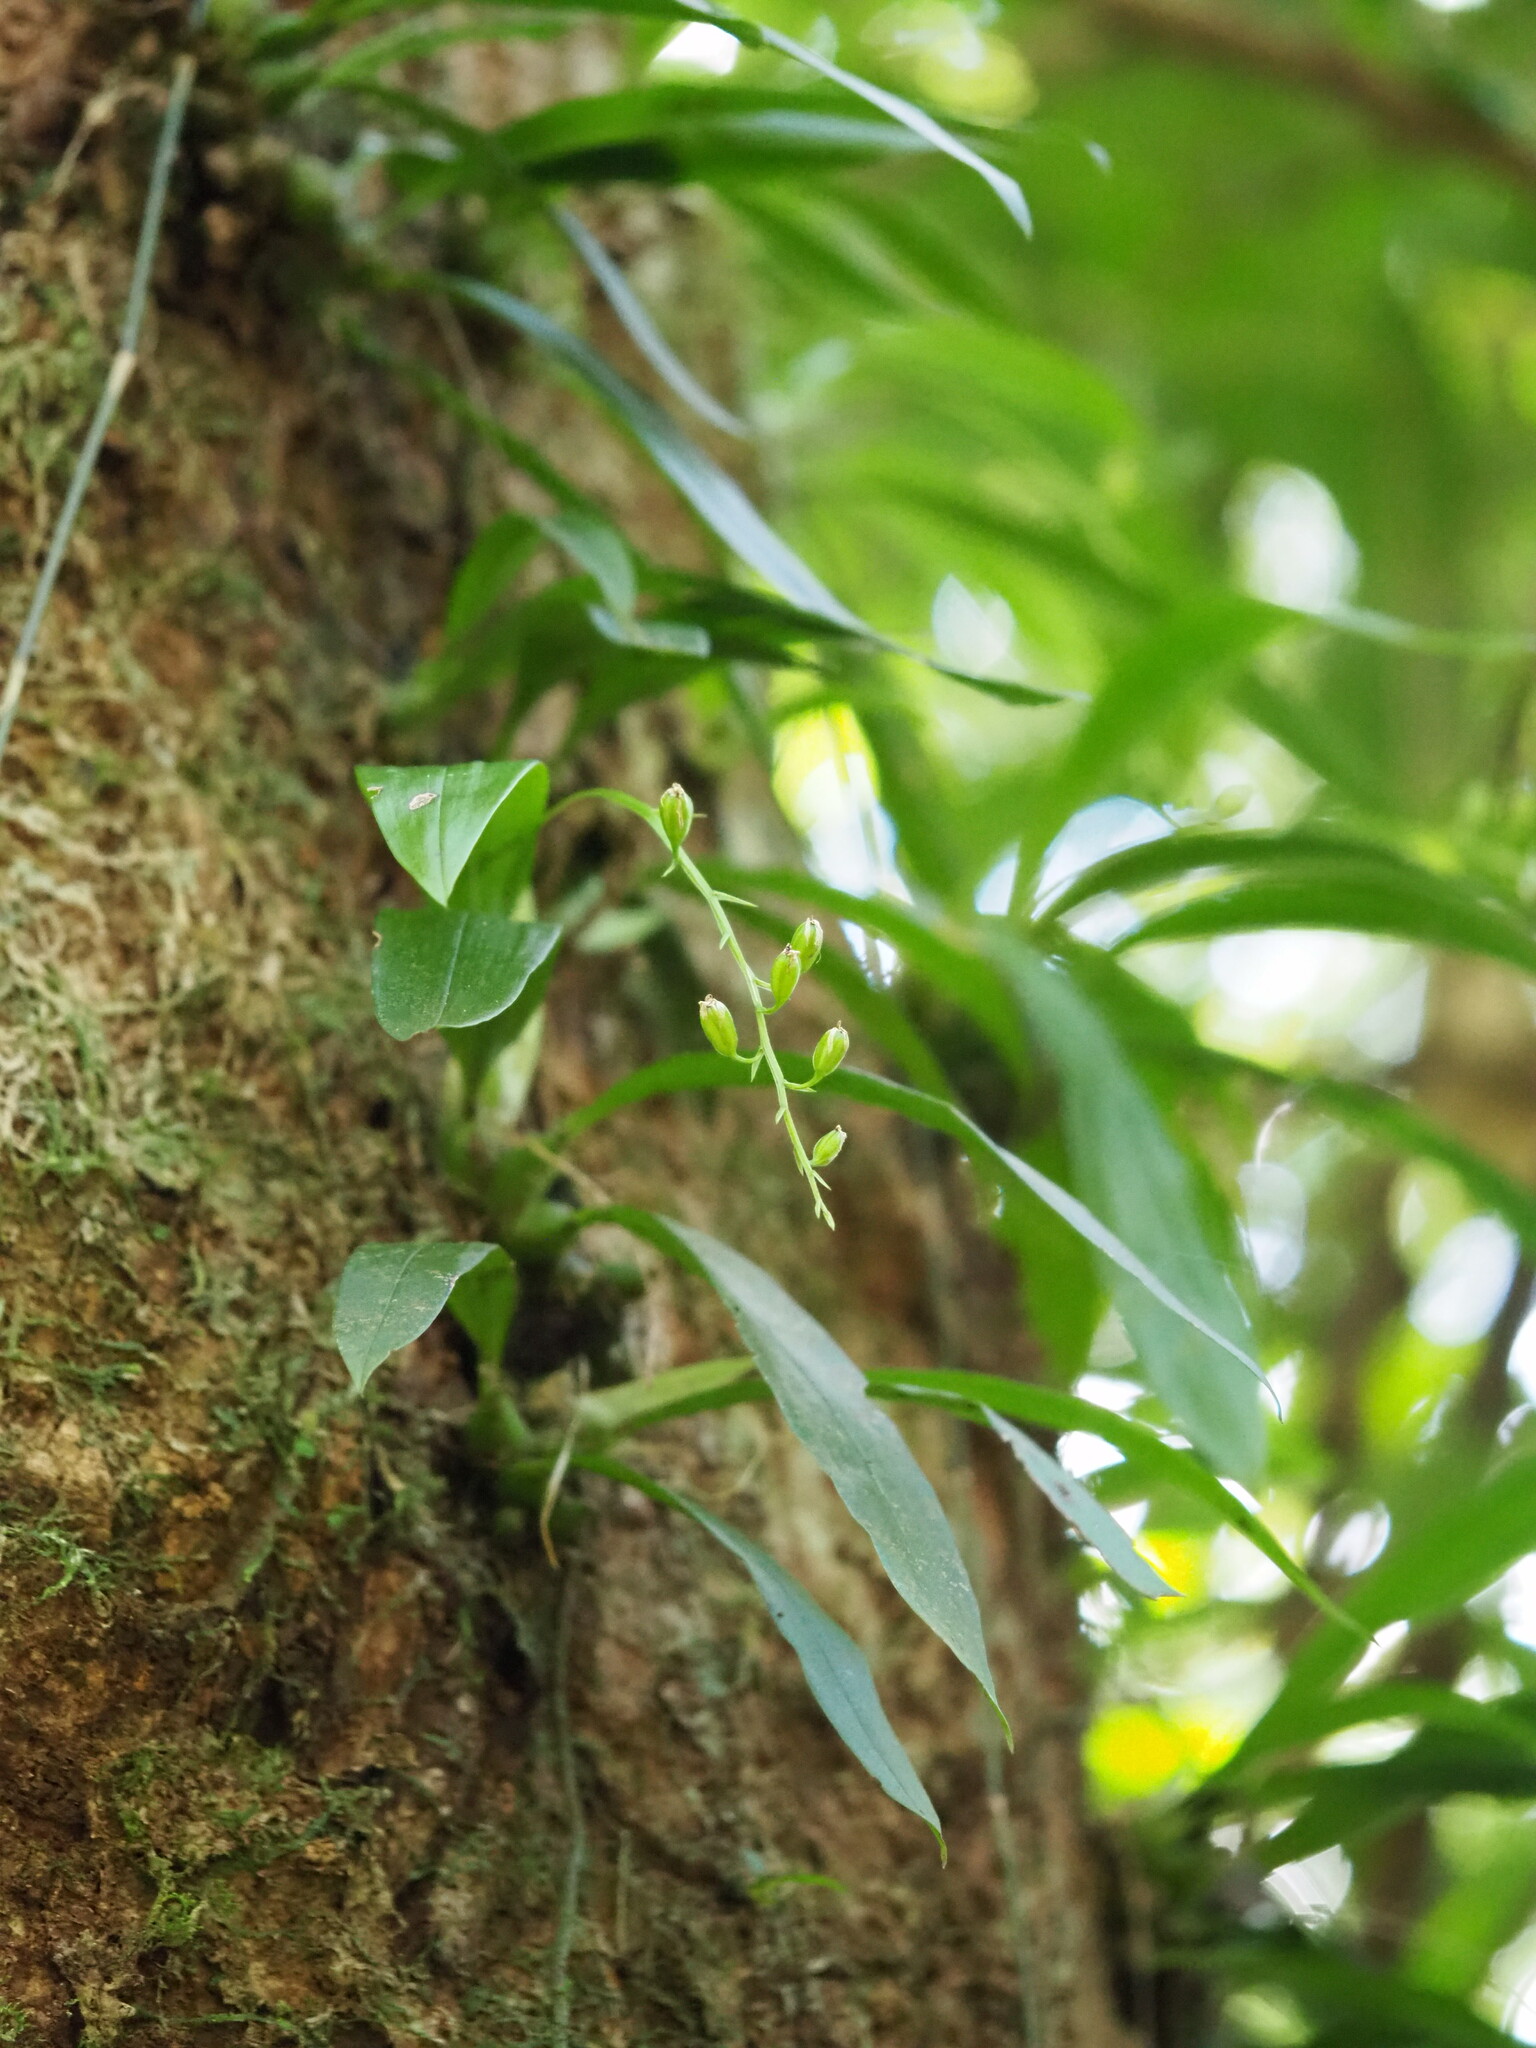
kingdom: Plantae
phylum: Tracheophyta
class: Liliopsida
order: Asparagales
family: Orchidaceae
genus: Liparis
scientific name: Liparis bootanensis
